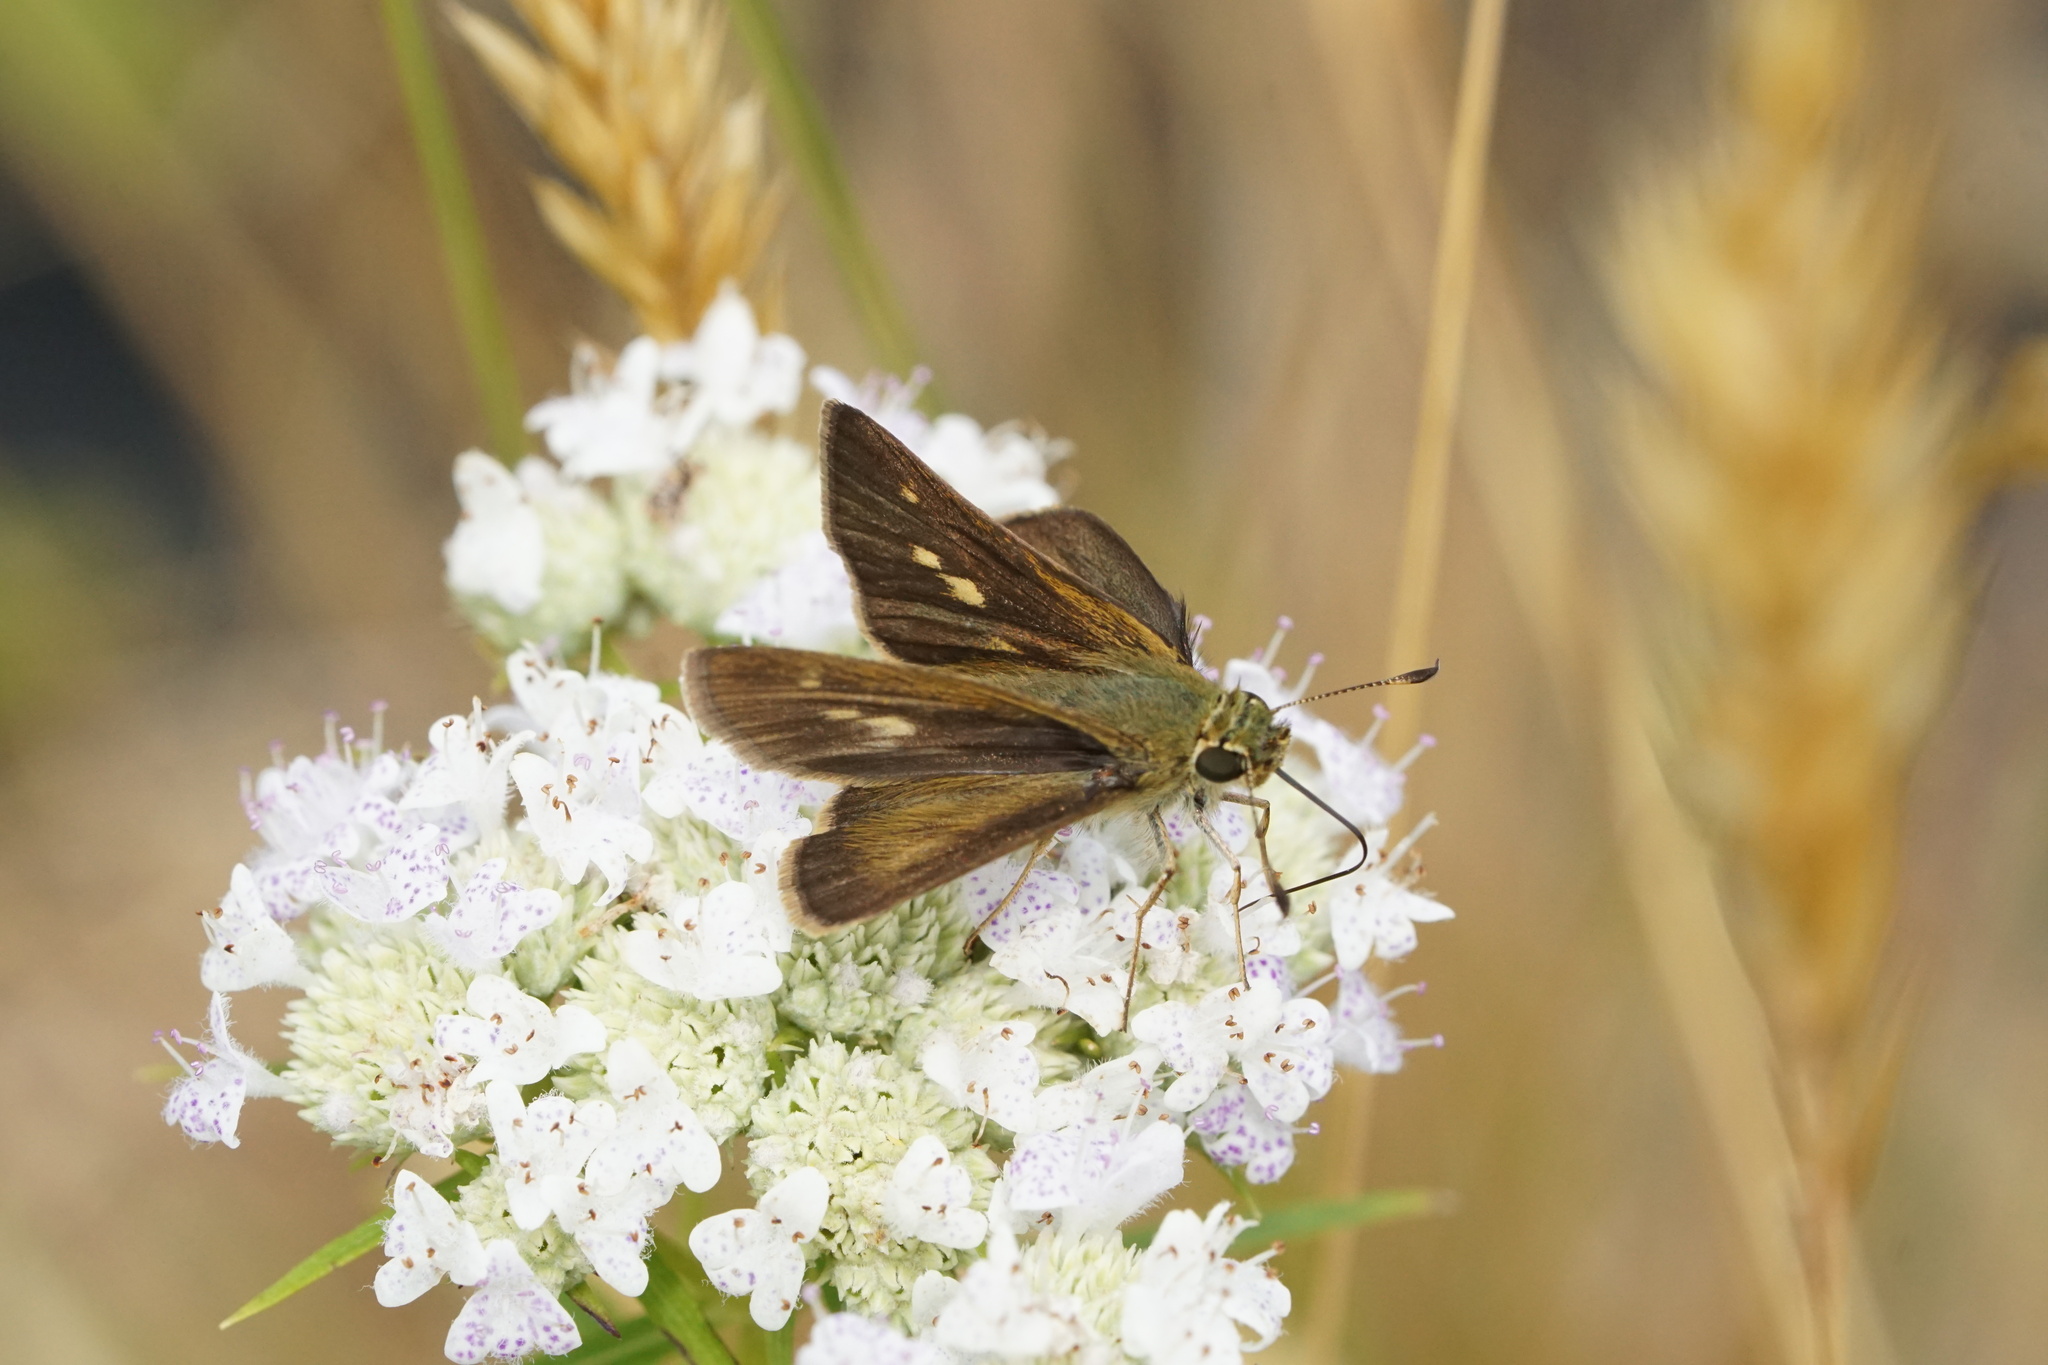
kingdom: Animalia
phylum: Arthropoda
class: Insecta
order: Lepidoptera
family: Hesperiidae
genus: Polites
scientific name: Polites egeremet
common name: Northern broken-dash
